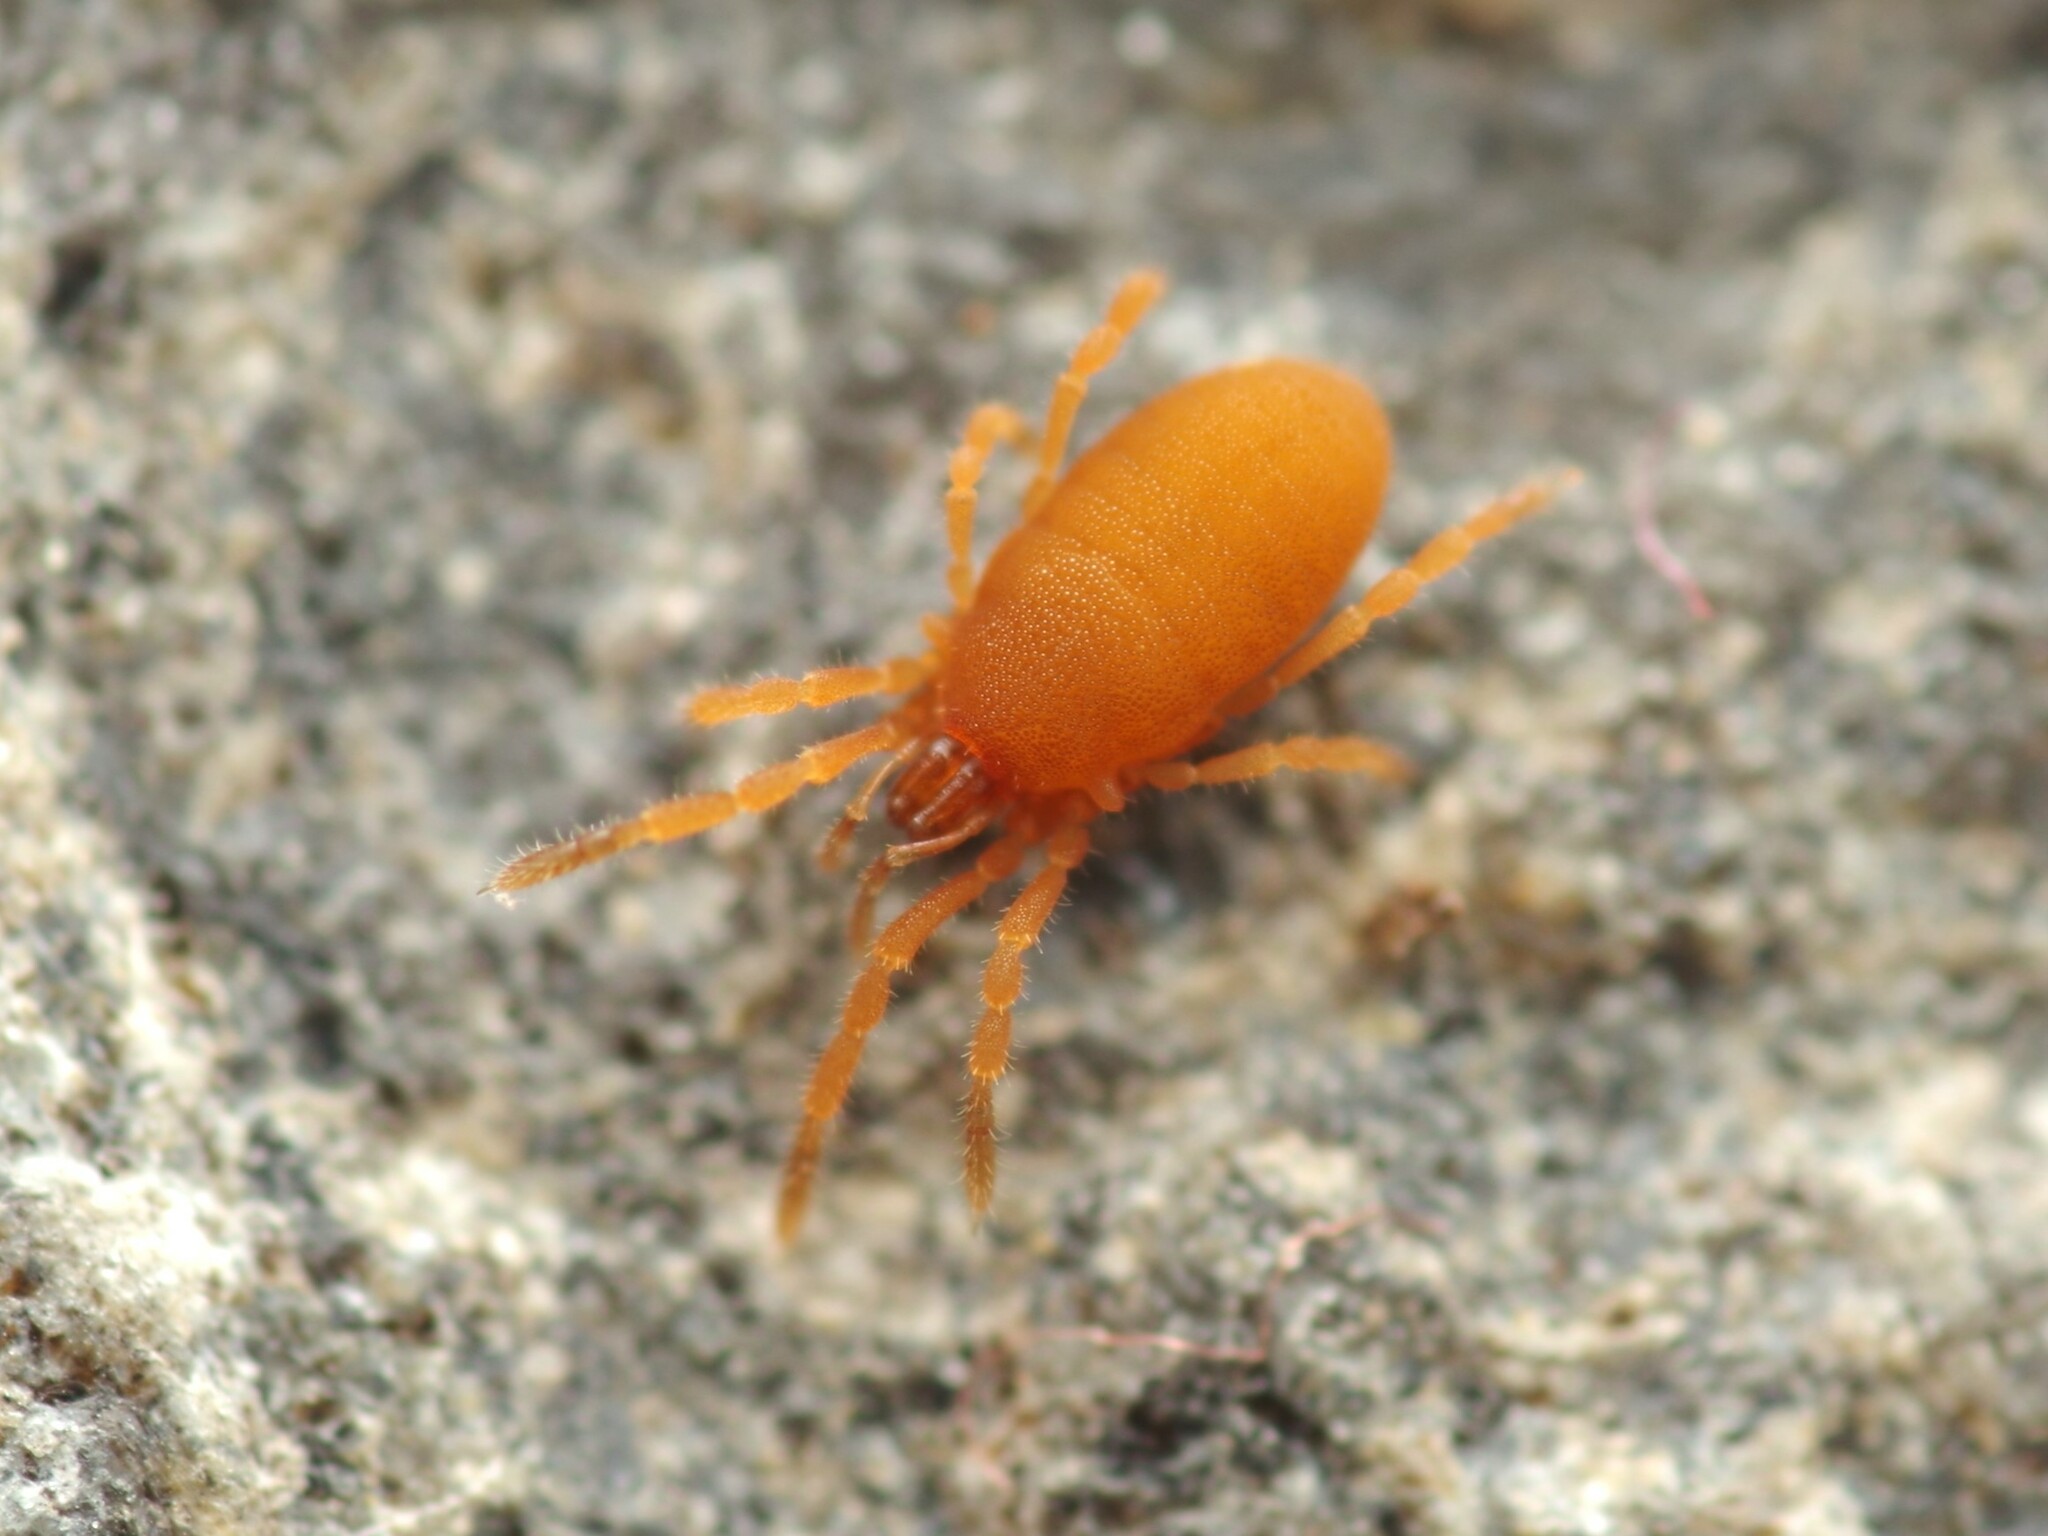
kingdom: Animalia
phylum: Arthropoda
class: Arachnida
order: Opiliones
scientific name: Opiliones
